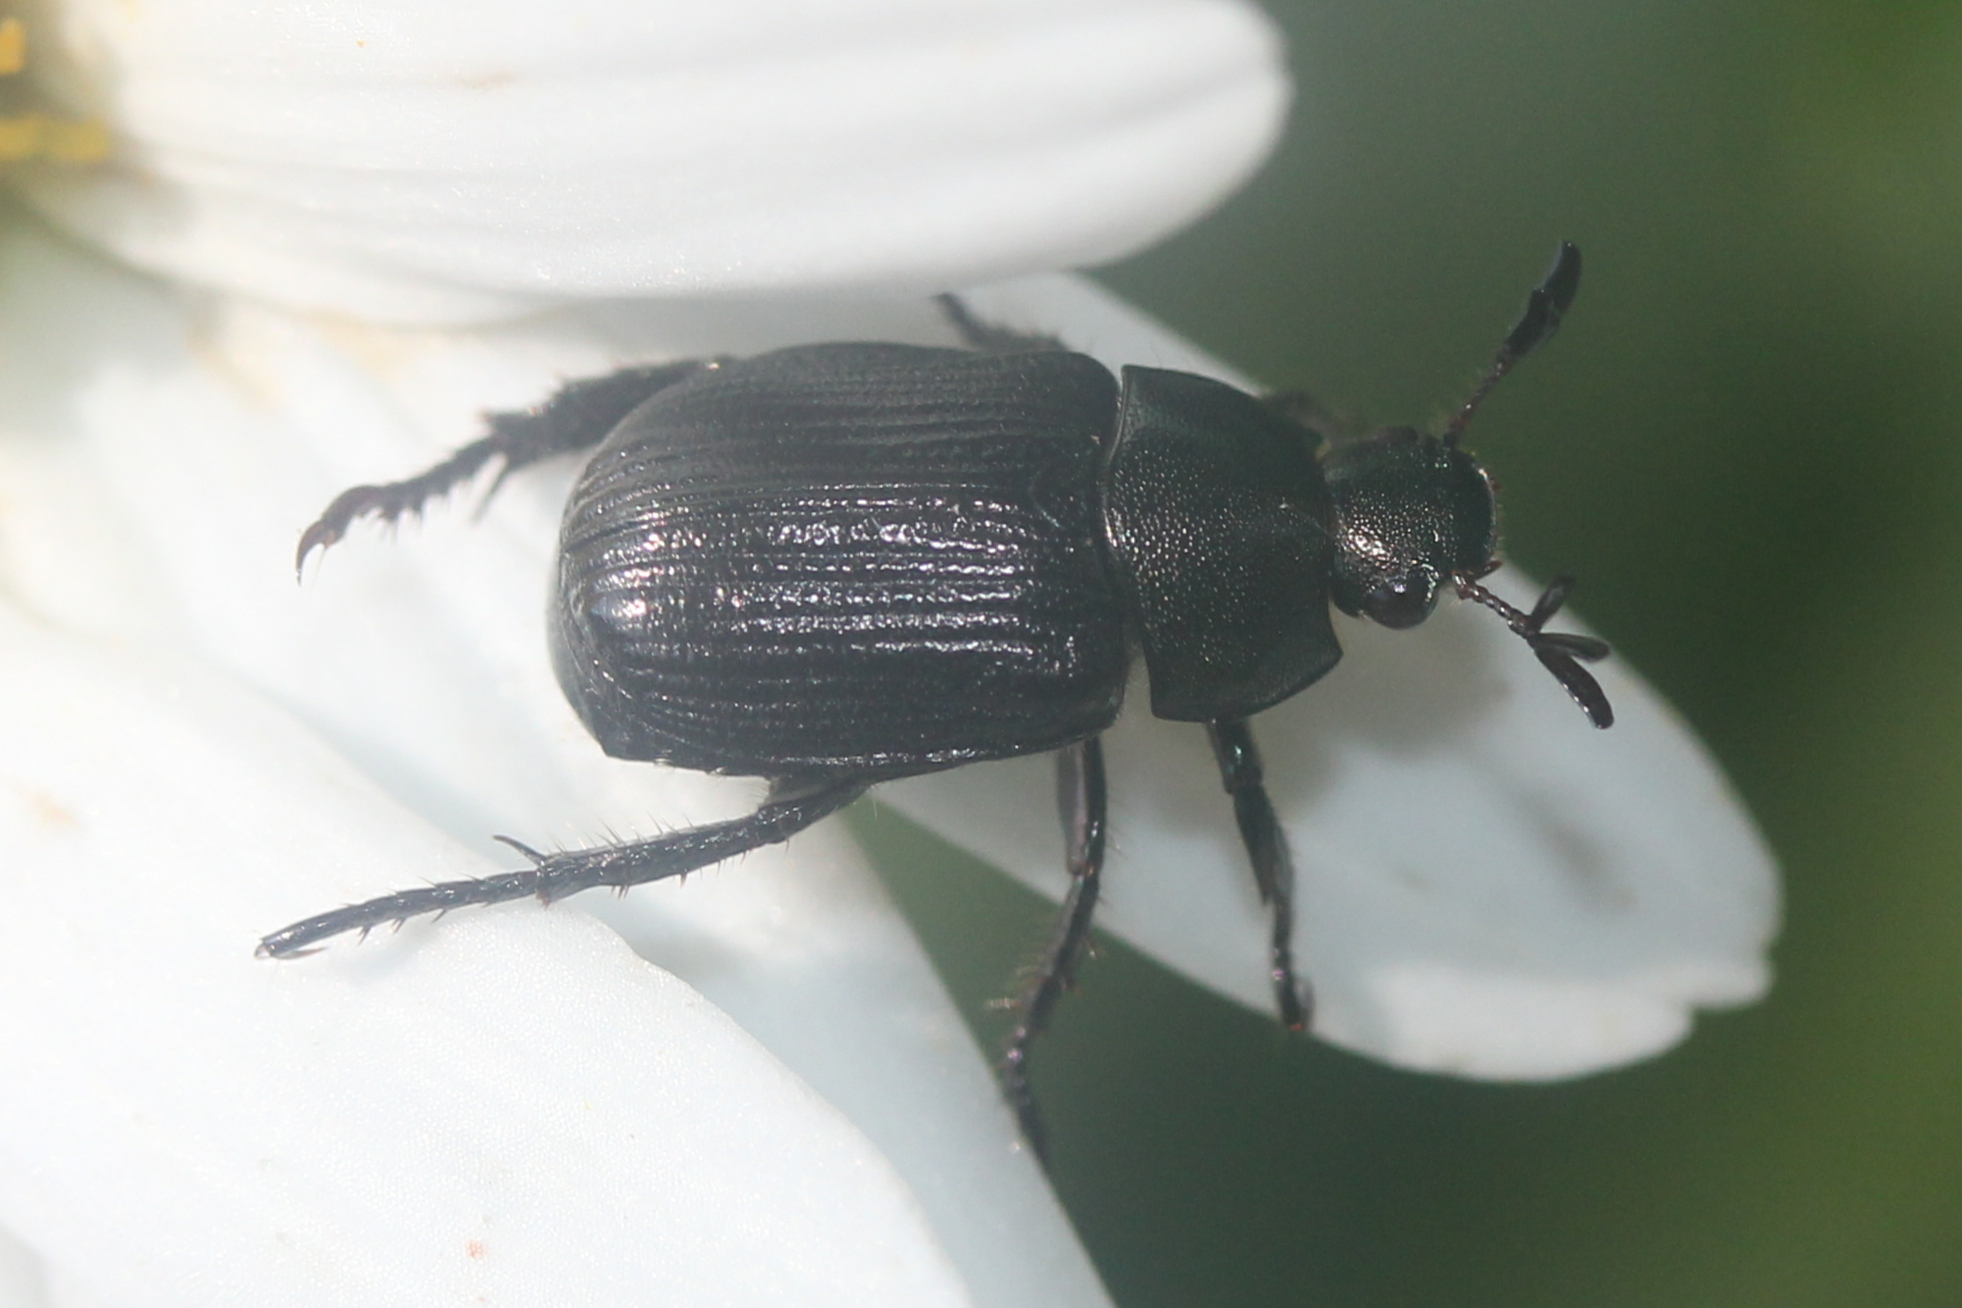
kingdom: Animalia
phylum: Arthropoda
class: Insecta
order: Coleoptera
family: Scarabaeidae
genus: Exomala
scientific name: Exomala orientalis
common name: Oriental beetle
